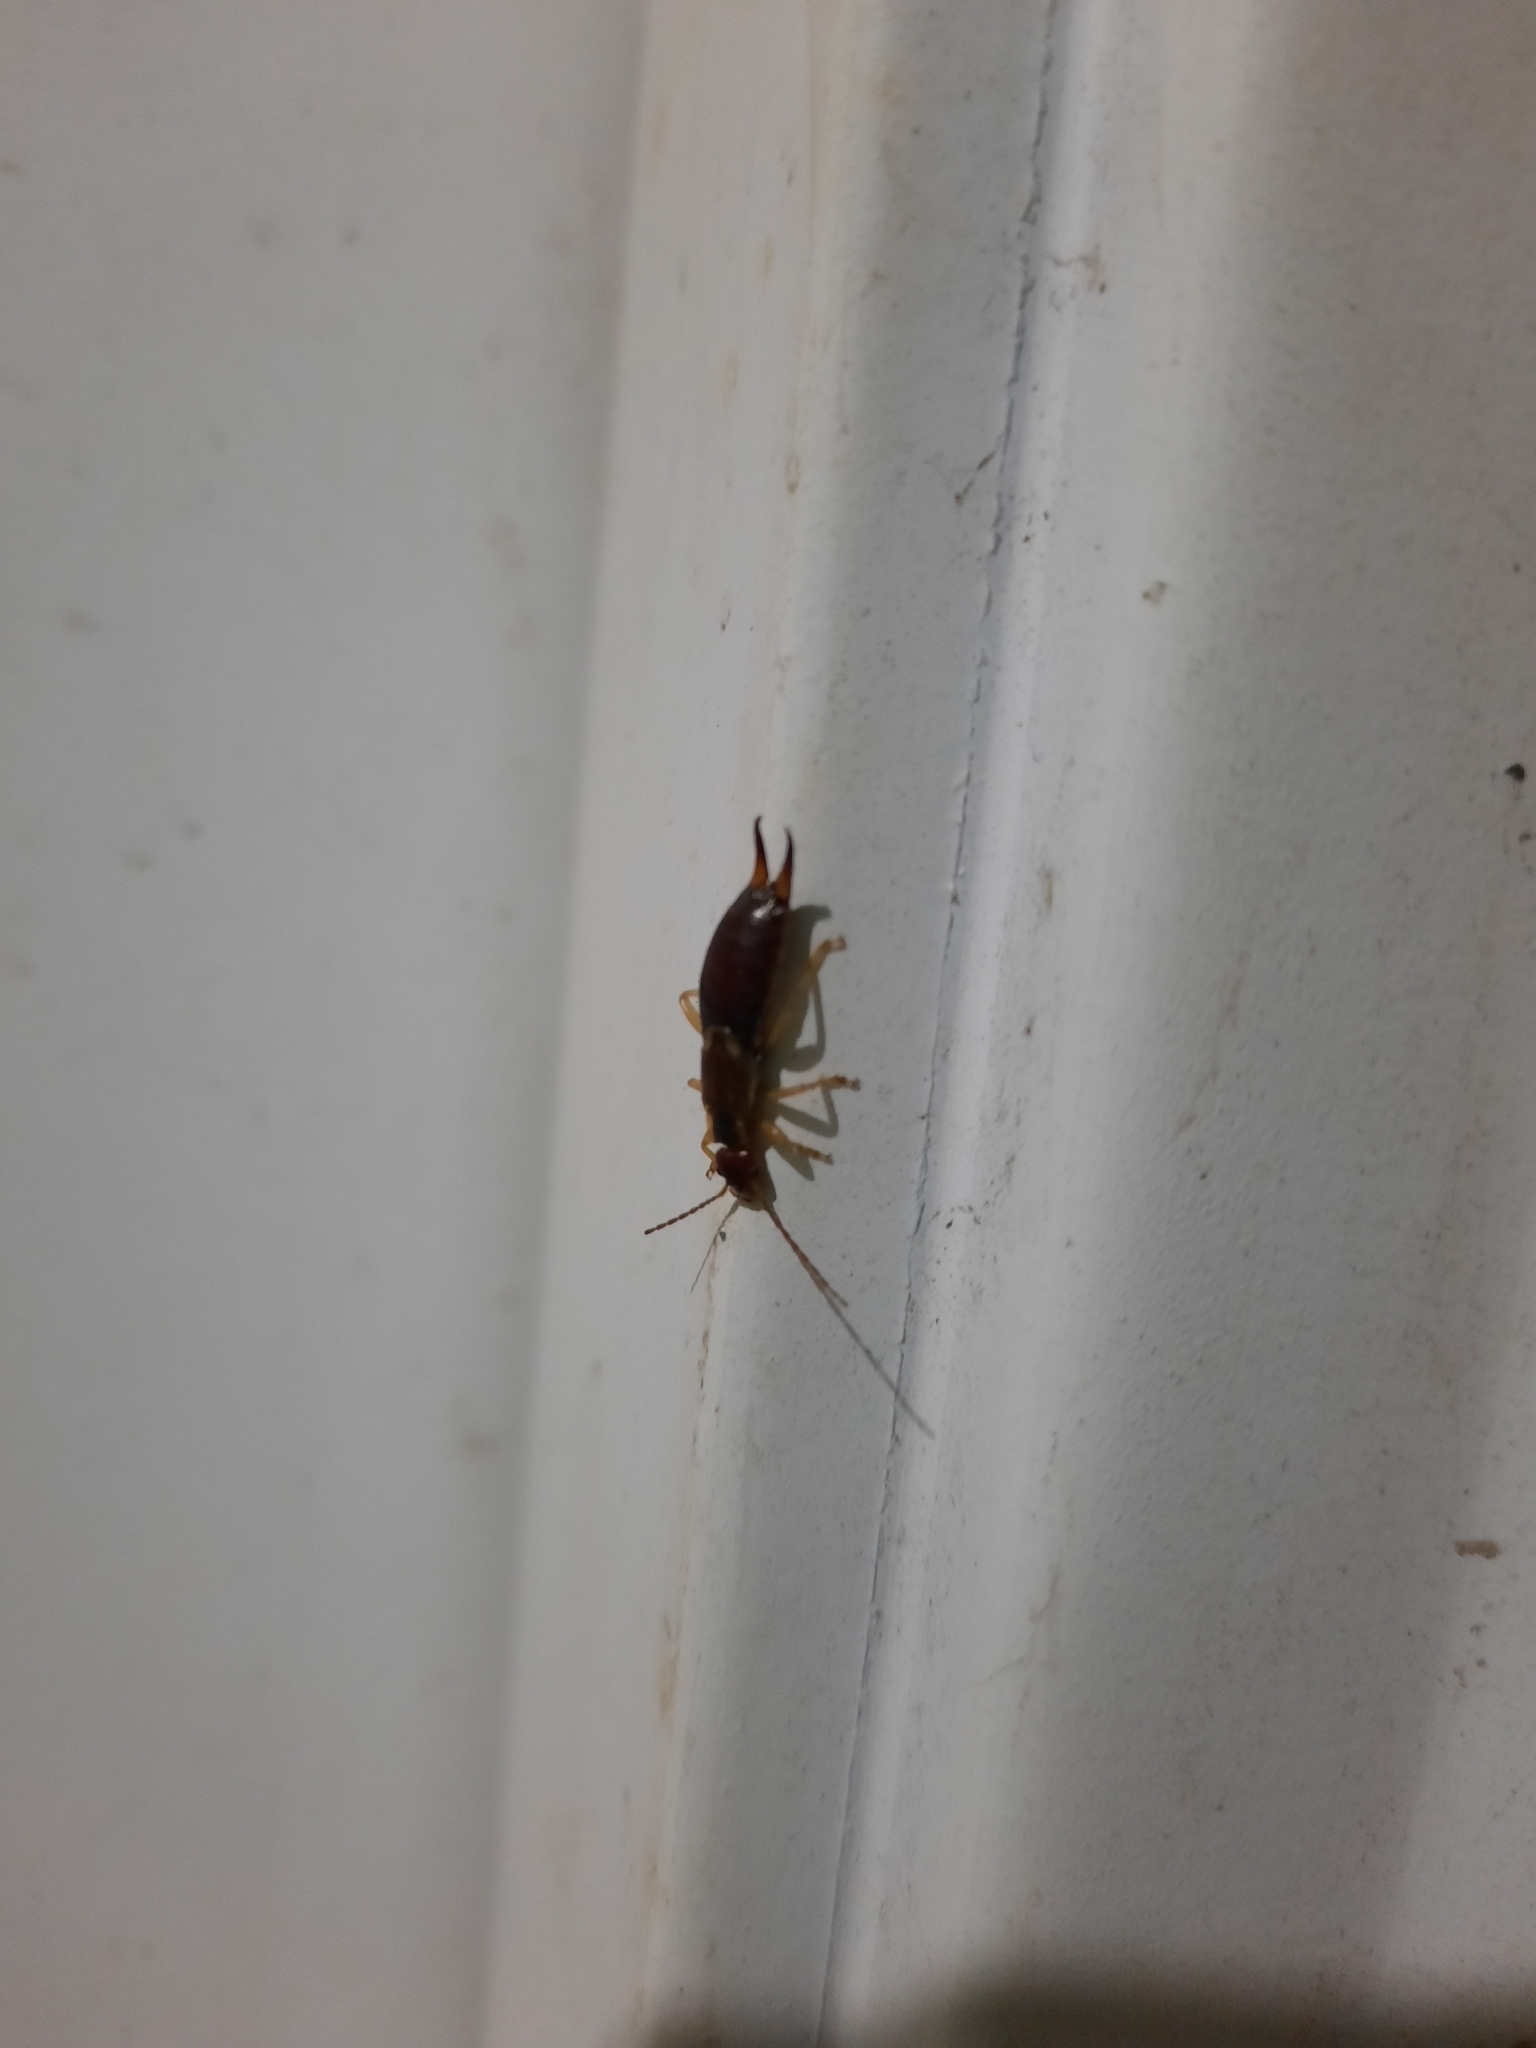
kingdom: Animalia
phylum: Arthropoda
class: Insecta
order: Dermaptera
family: Forficulidae
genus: Forficula
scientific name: Forficula
